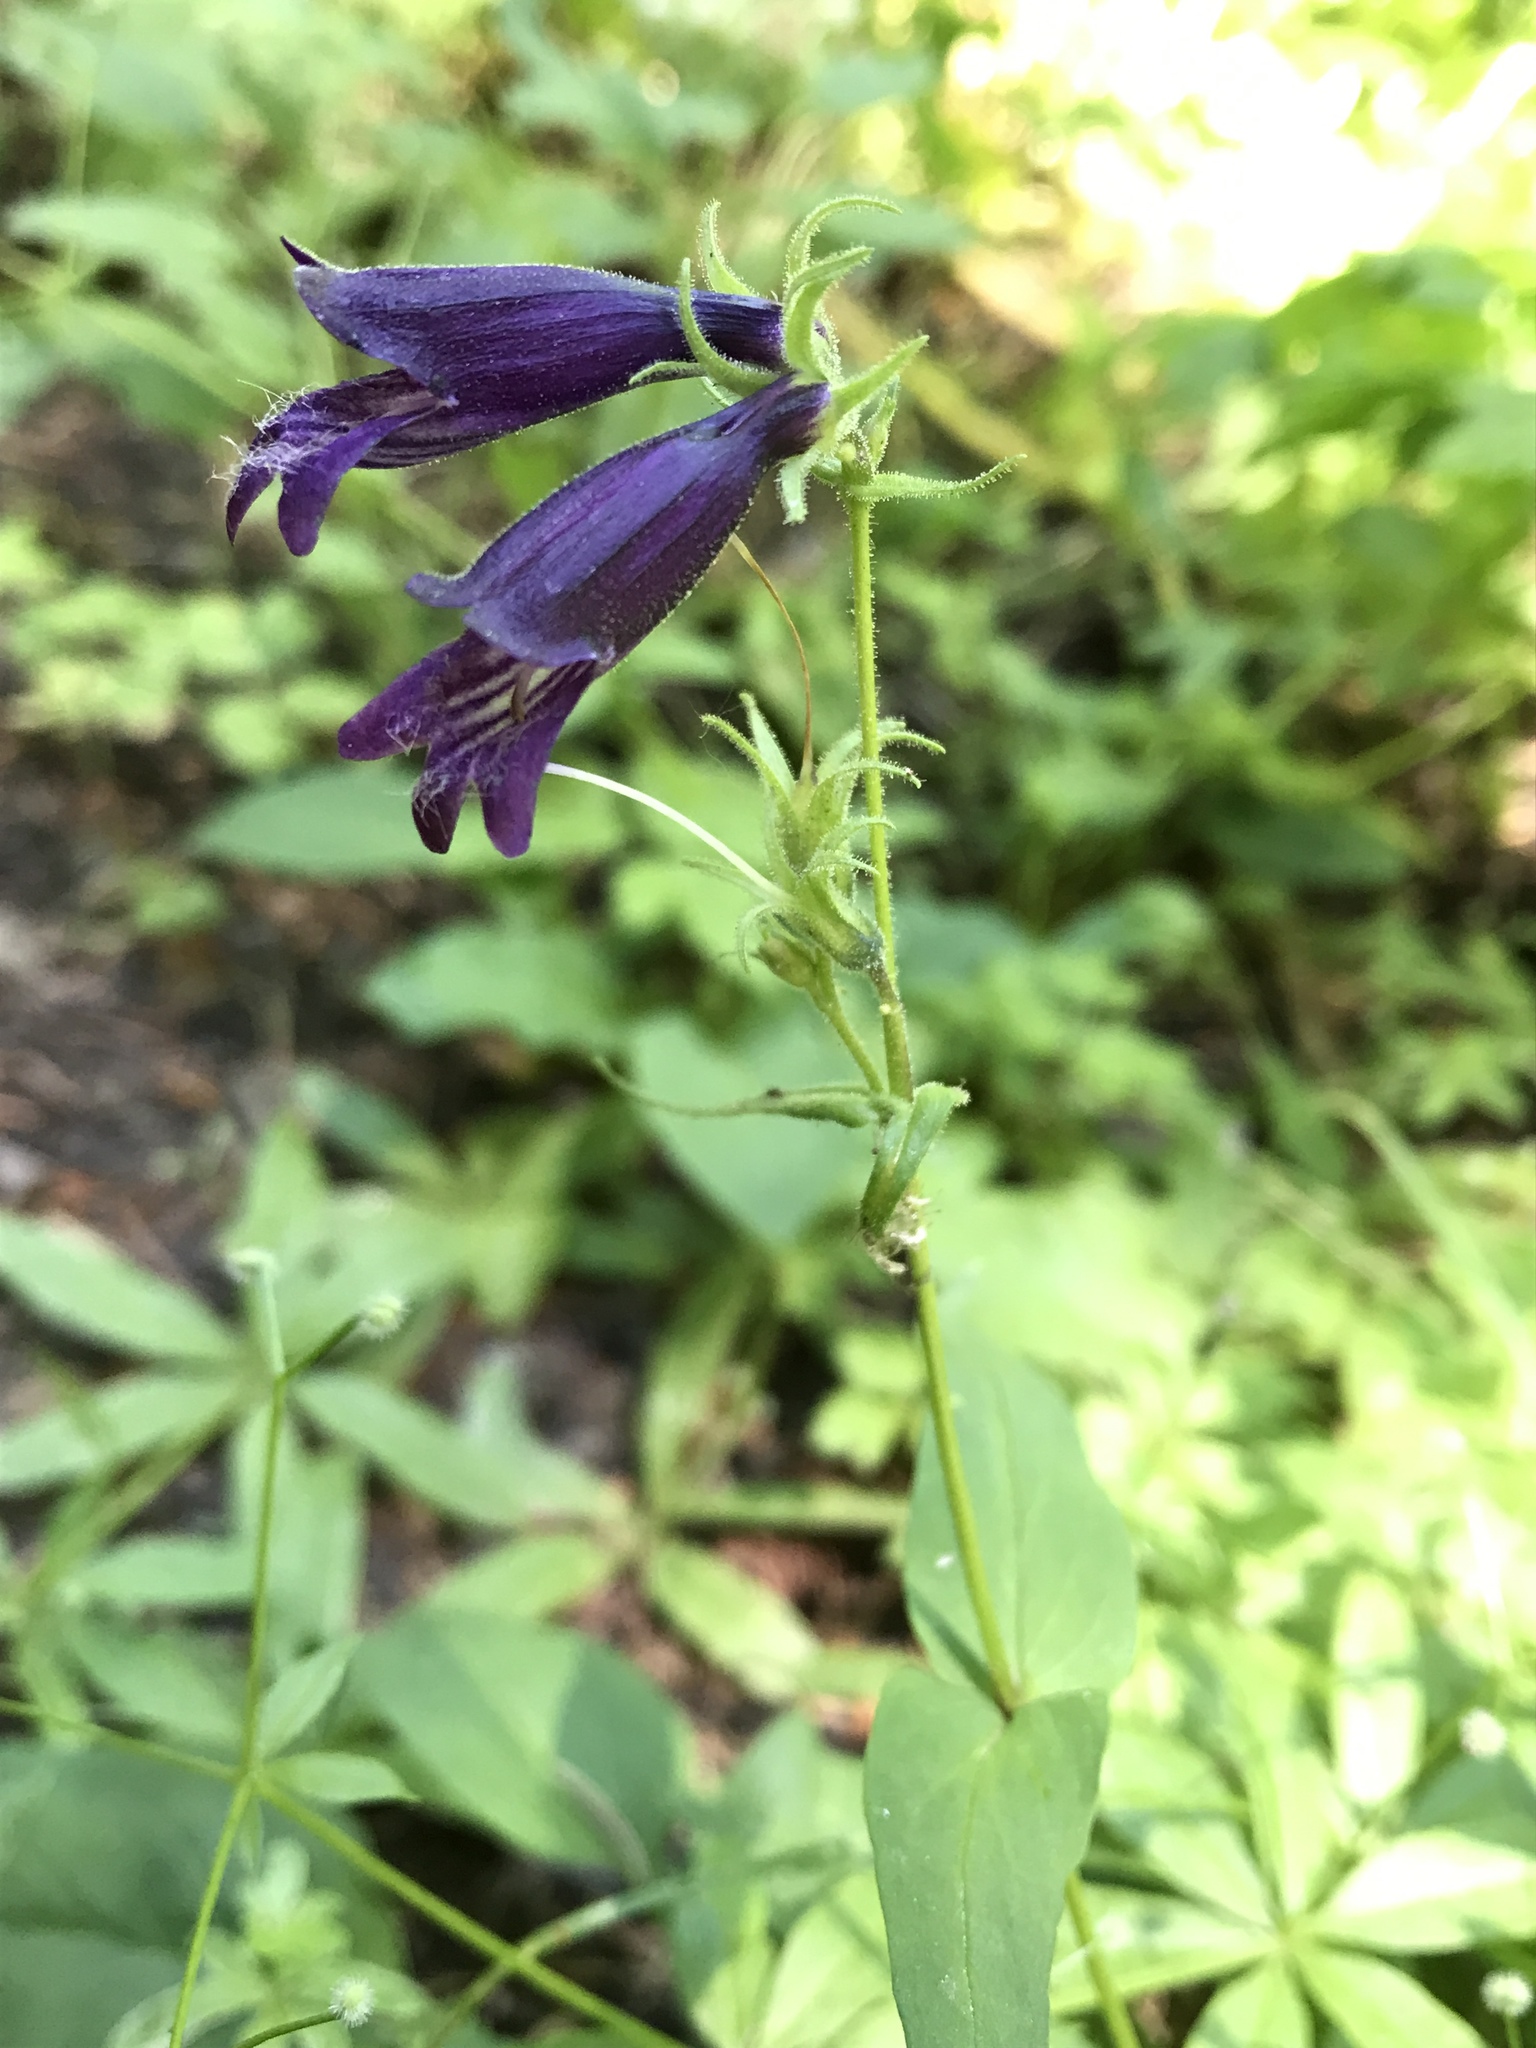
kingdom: Plantae
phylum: Tracheophyta
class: Magnoliopsida
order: Lamiales
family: Plantaginaceae
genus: Penstemon
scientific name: Penstemon whippleanus
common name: Whipple's penstemon
